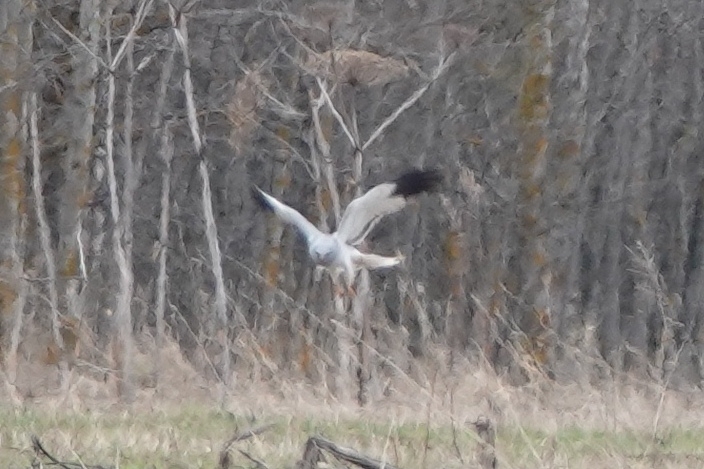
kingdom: Animalia
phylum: Chordata
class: Aves
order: Accipitriformes
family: Accipitridae
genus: Circus
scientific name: Circus cyaneus
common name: Hen harrier
